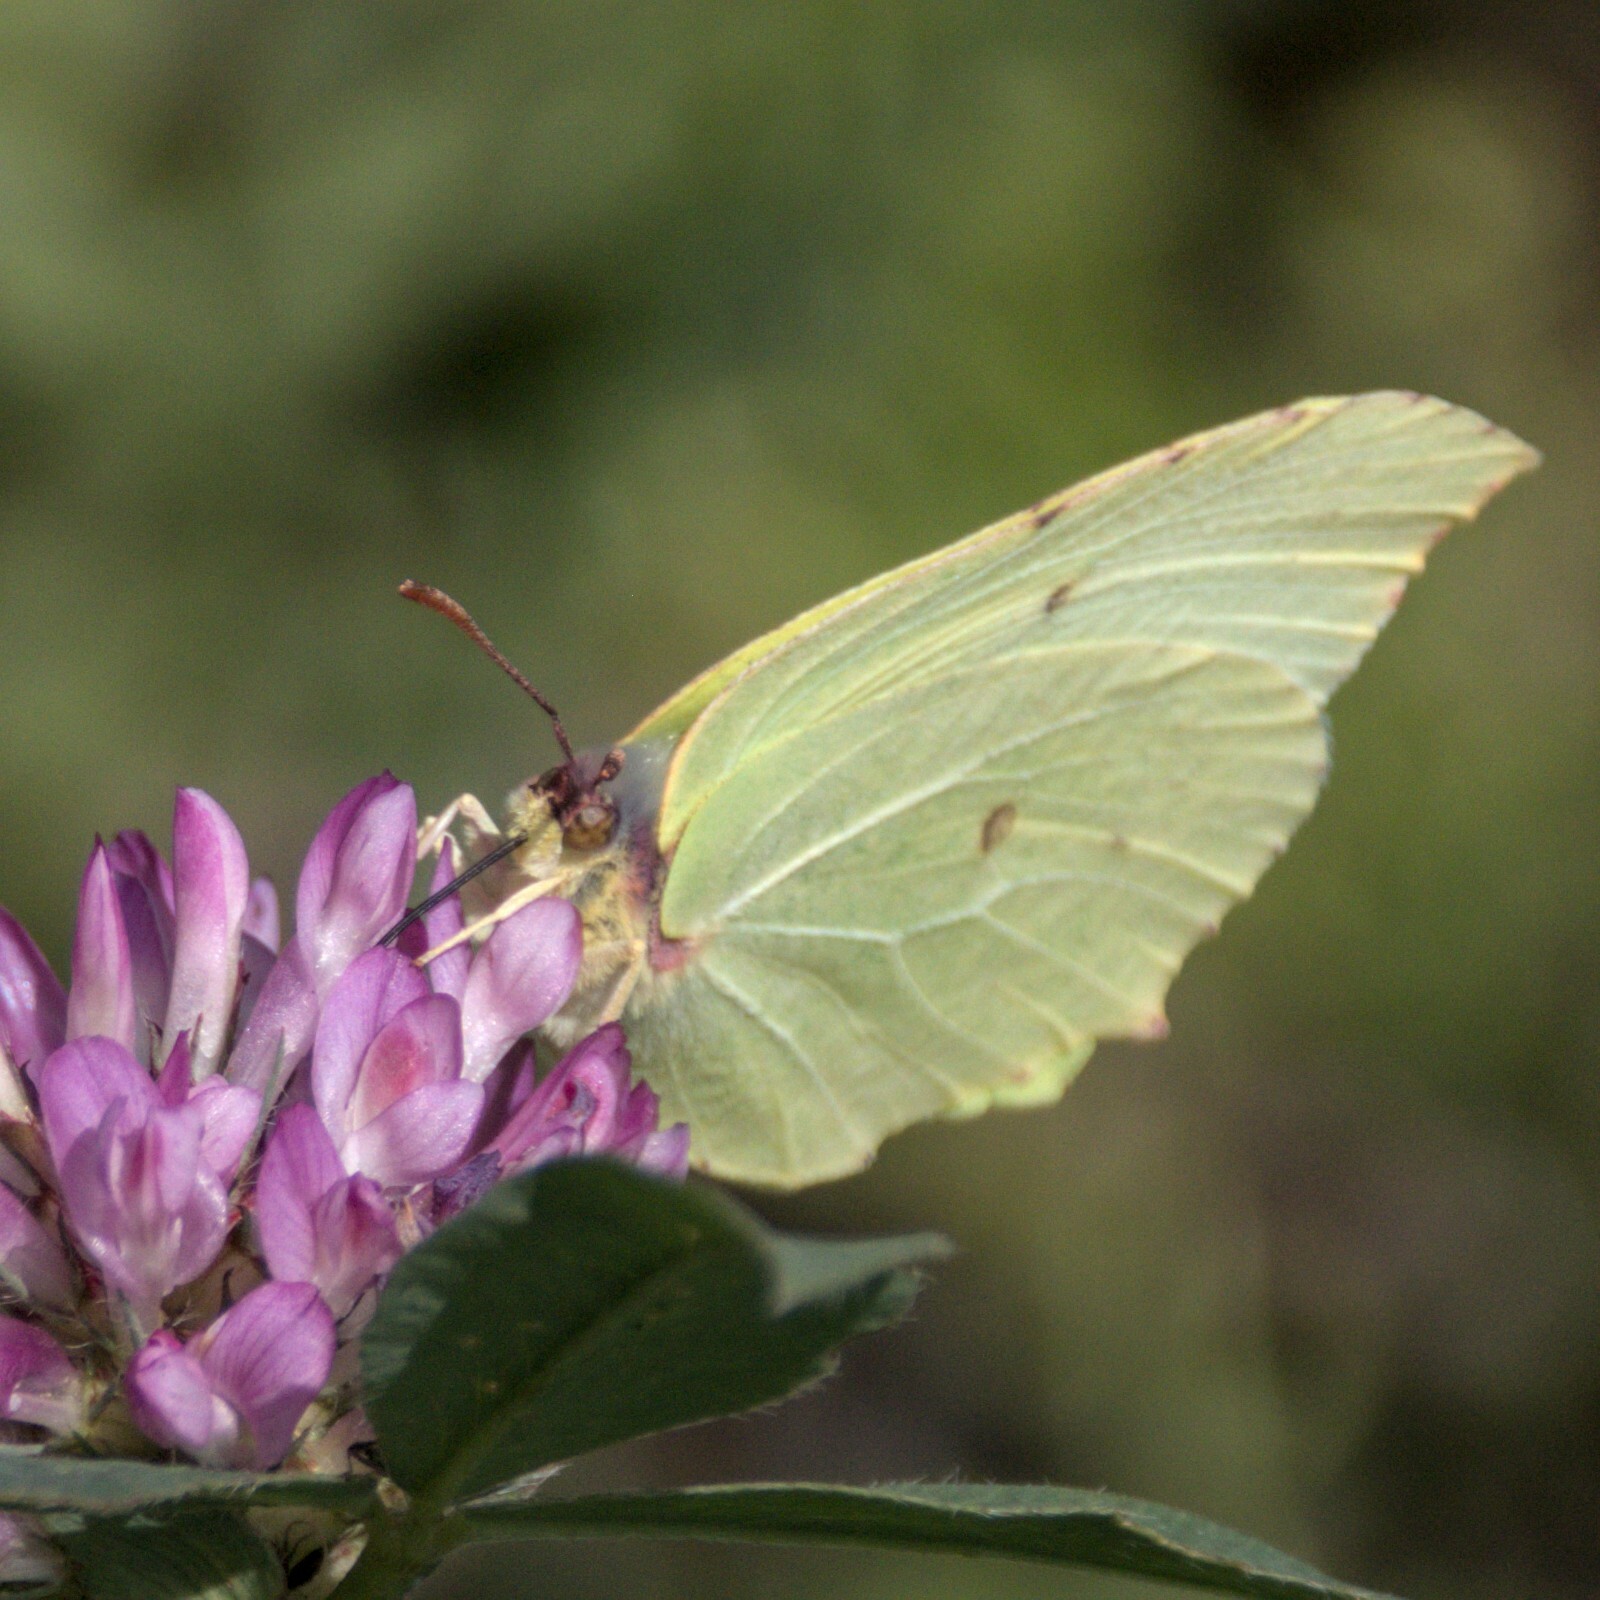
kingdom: Animalia
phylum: Arthropoda
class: Insecta
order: Lepidoptera
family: Pieridae
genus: Gonepteryx
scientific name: Gonepteryx rhamni
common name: Brimstone
